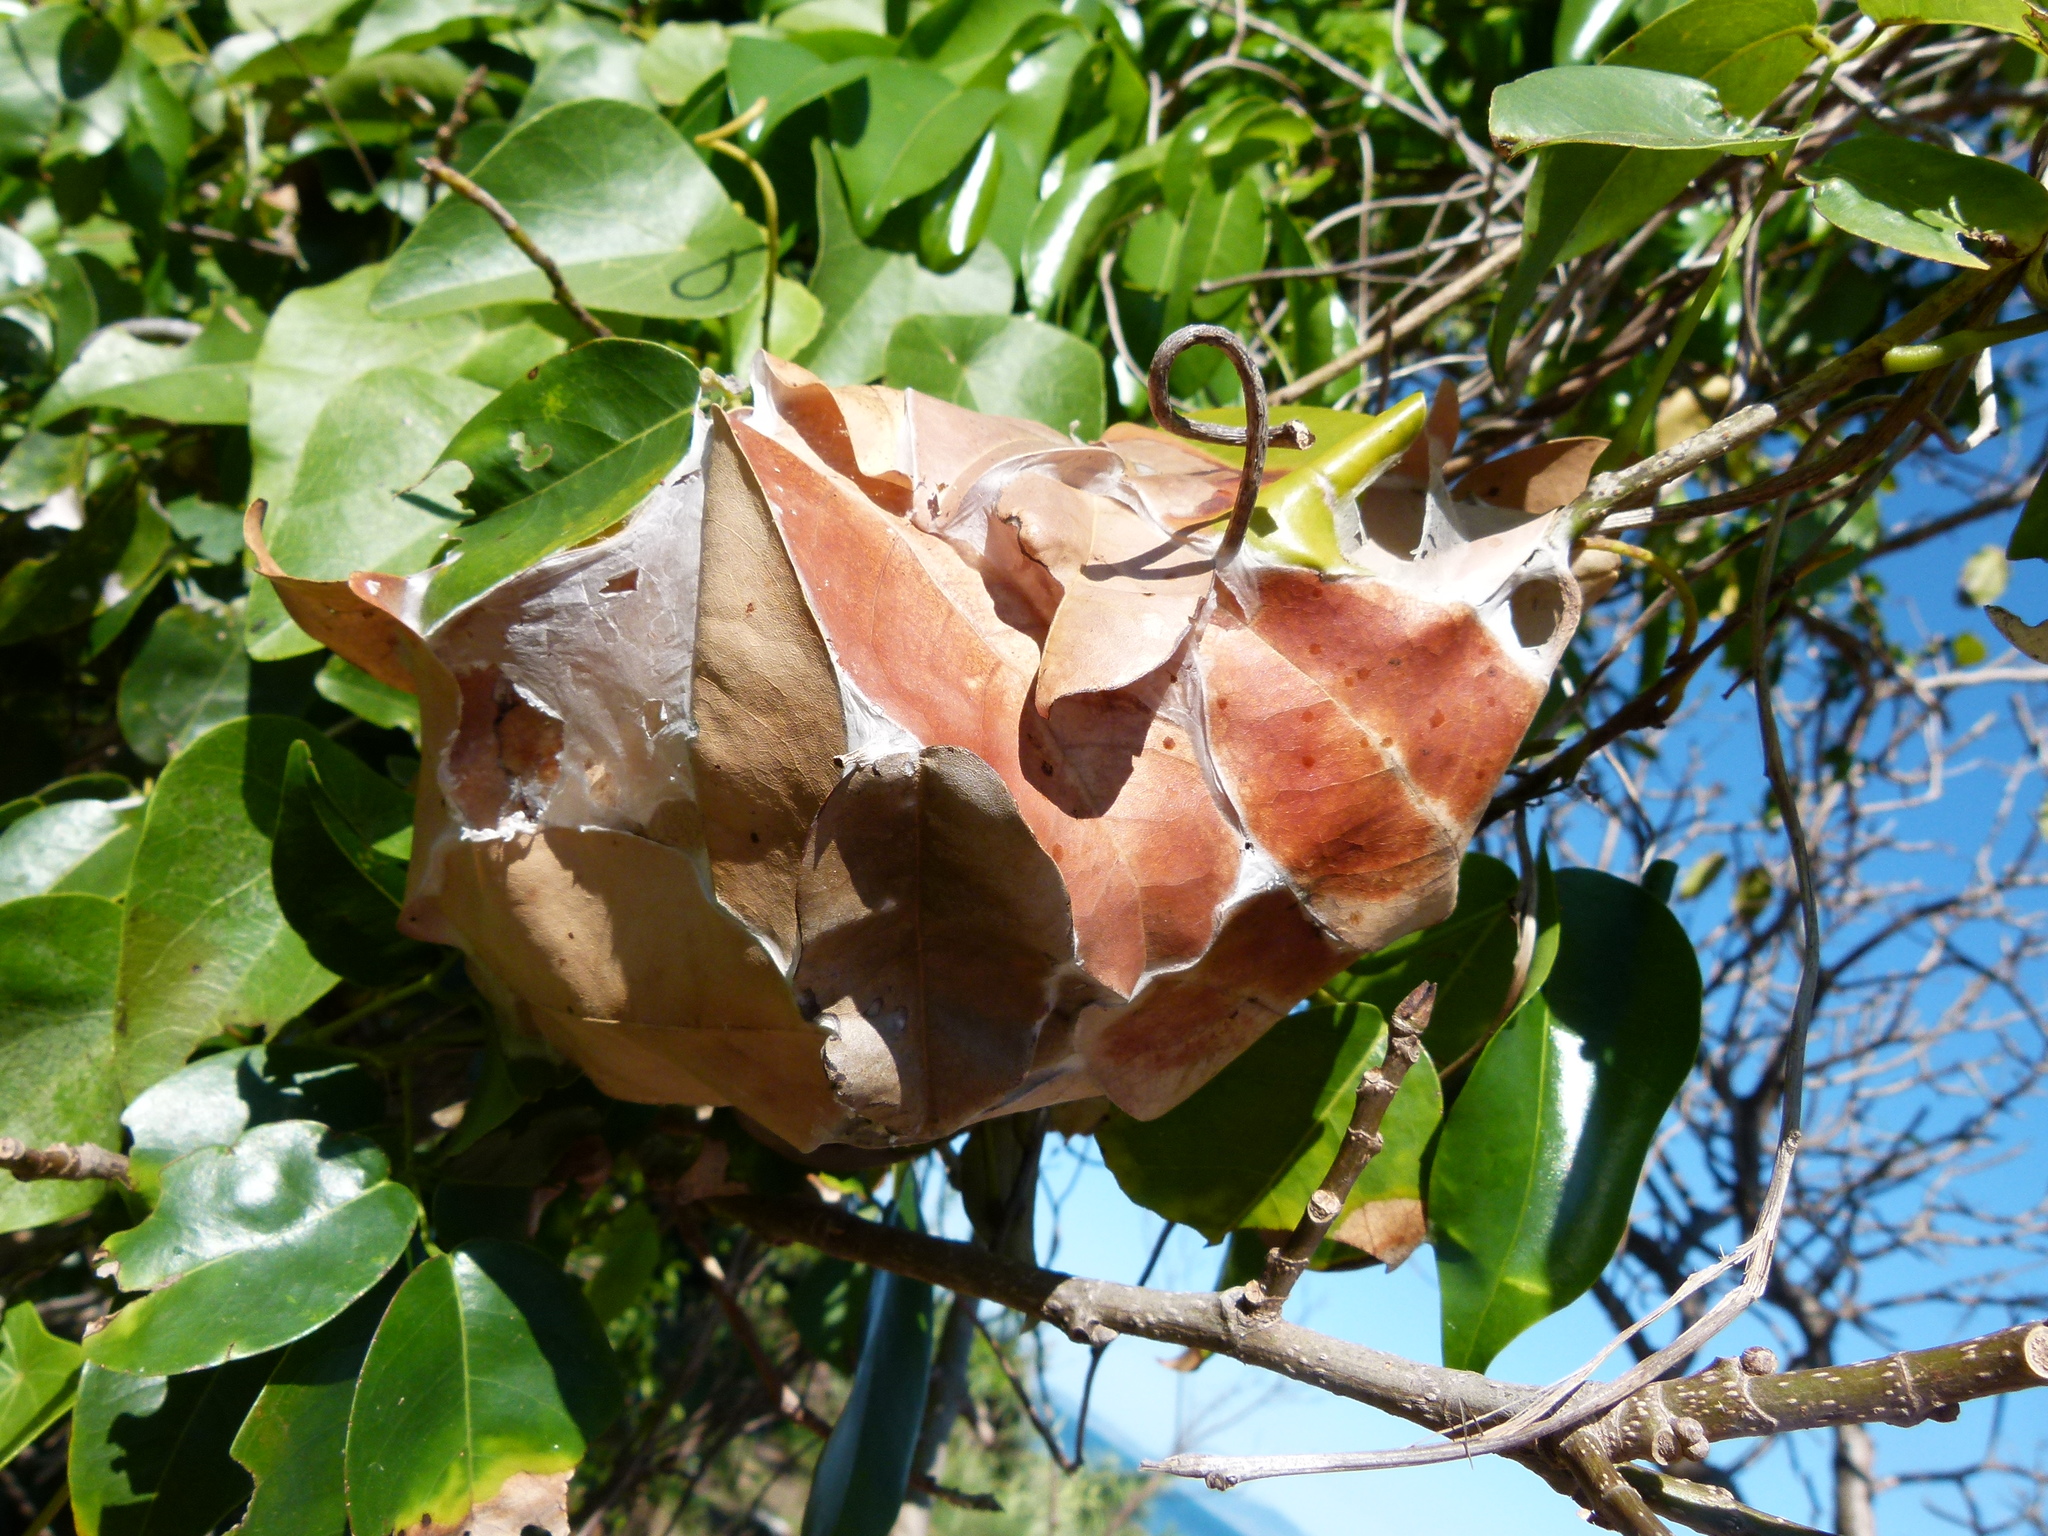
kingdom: Animalia
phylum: Arthropoda
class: Insecta
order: Hymenoptera
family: Formicidae
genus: Oecophylla
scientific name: Oecophylla smaragdina
